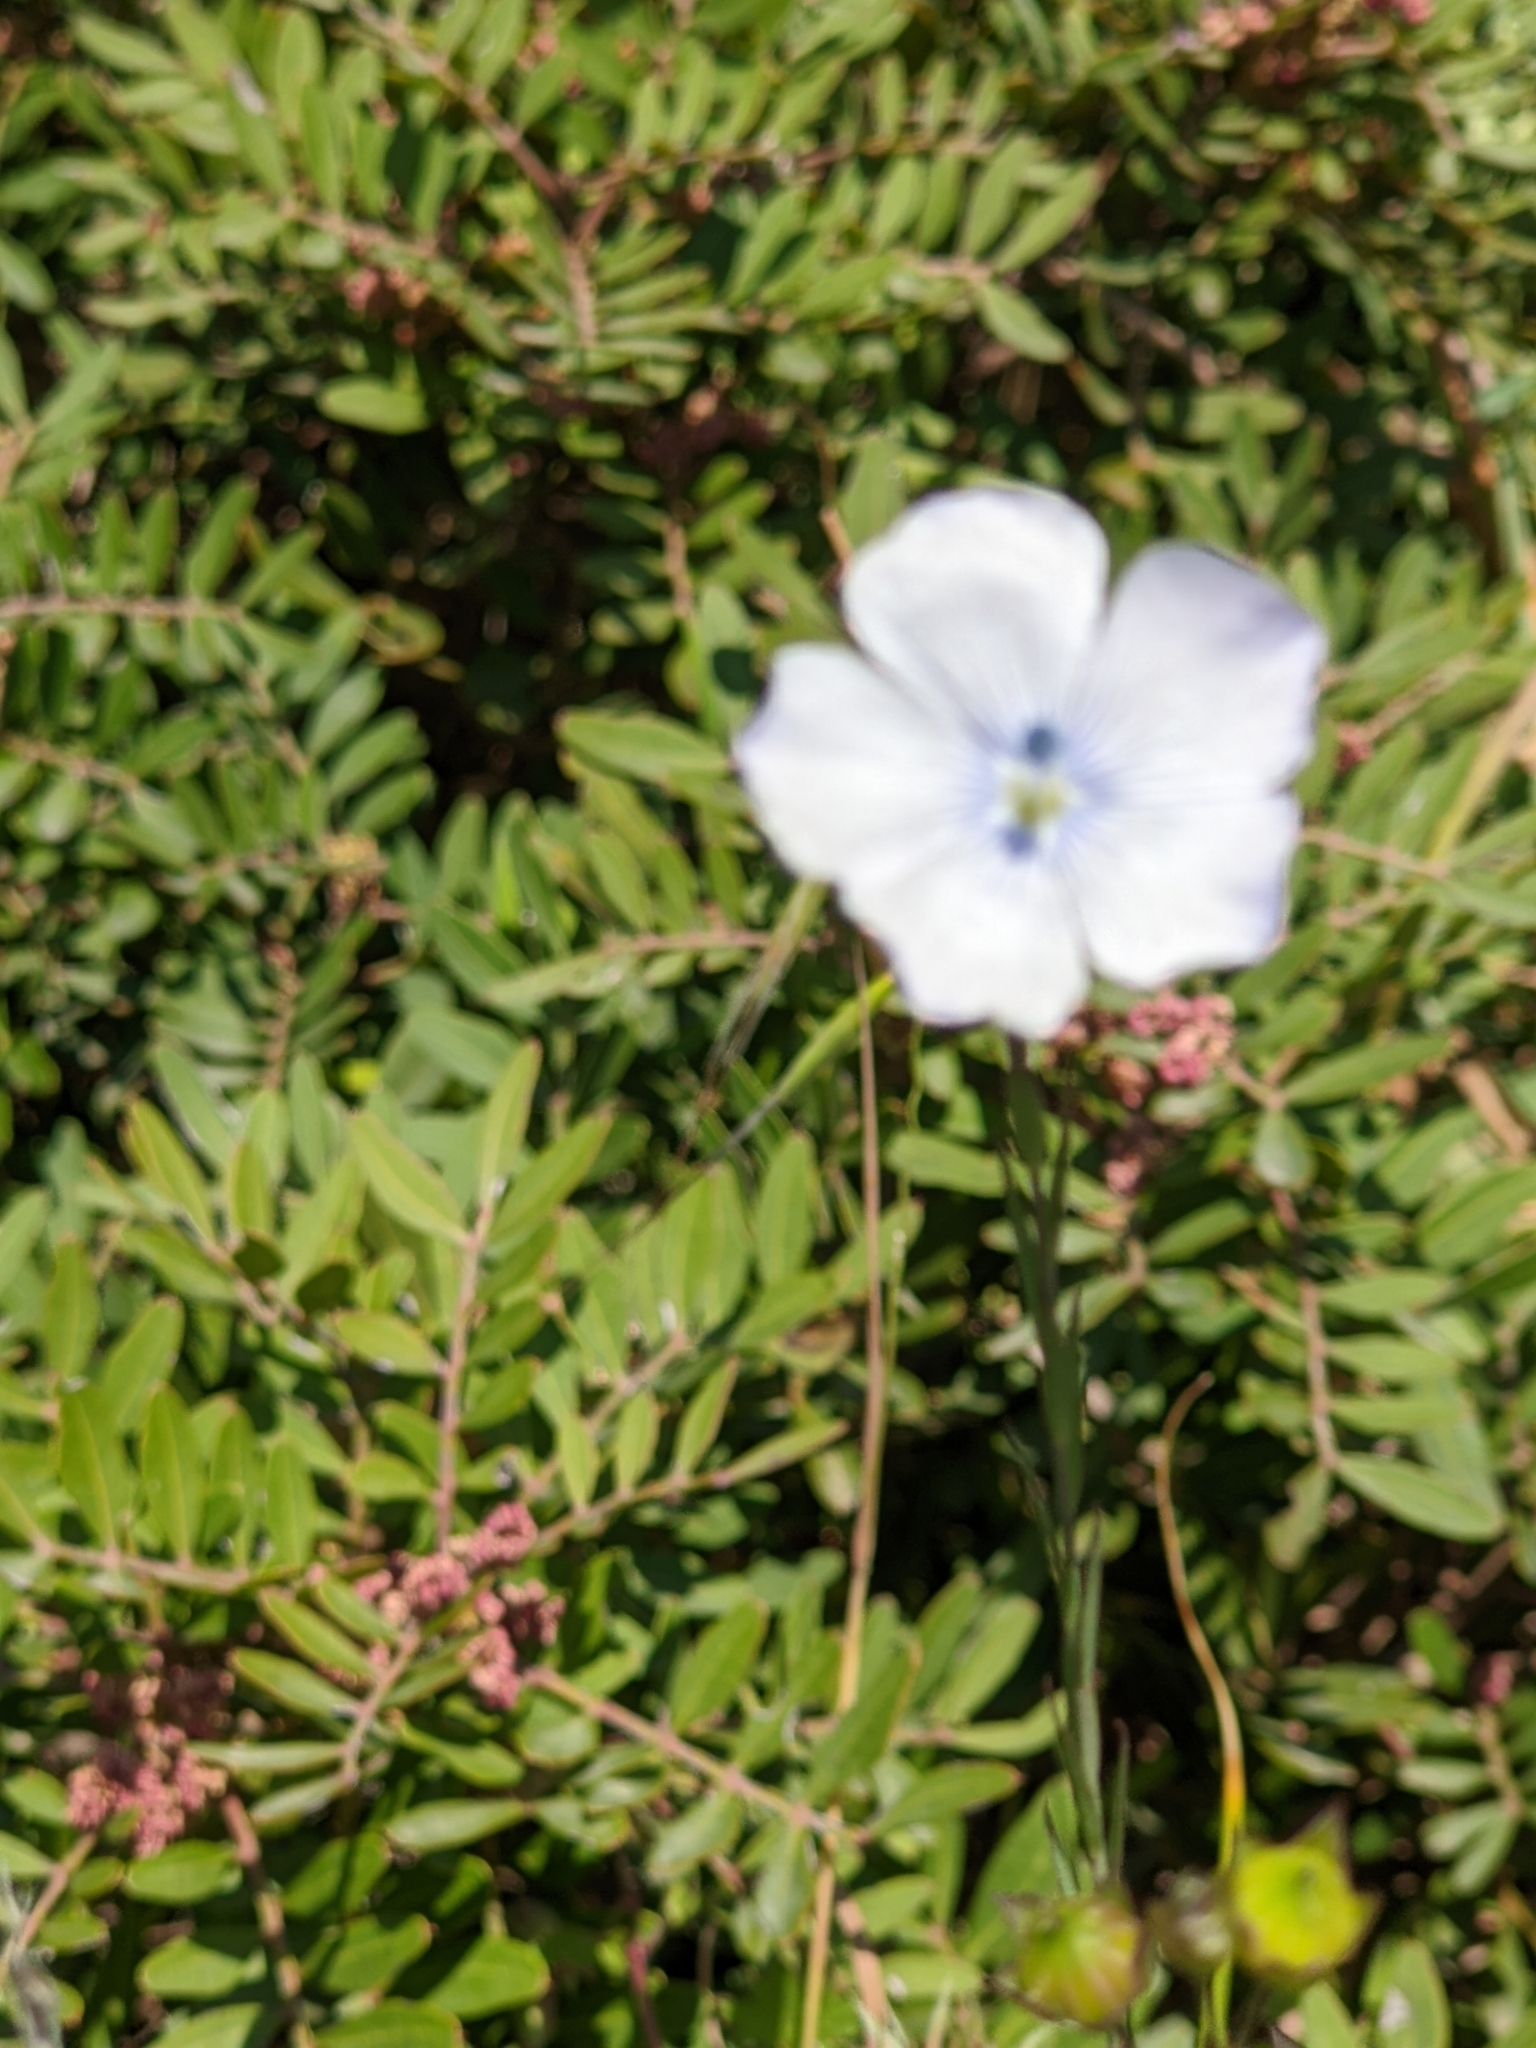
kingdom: Plantae
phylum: Tracheophyta
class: Magnoliopsida
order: Malpighiales
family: Linaceae
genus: Linum
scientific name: Linum bienne
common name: Pale flax
